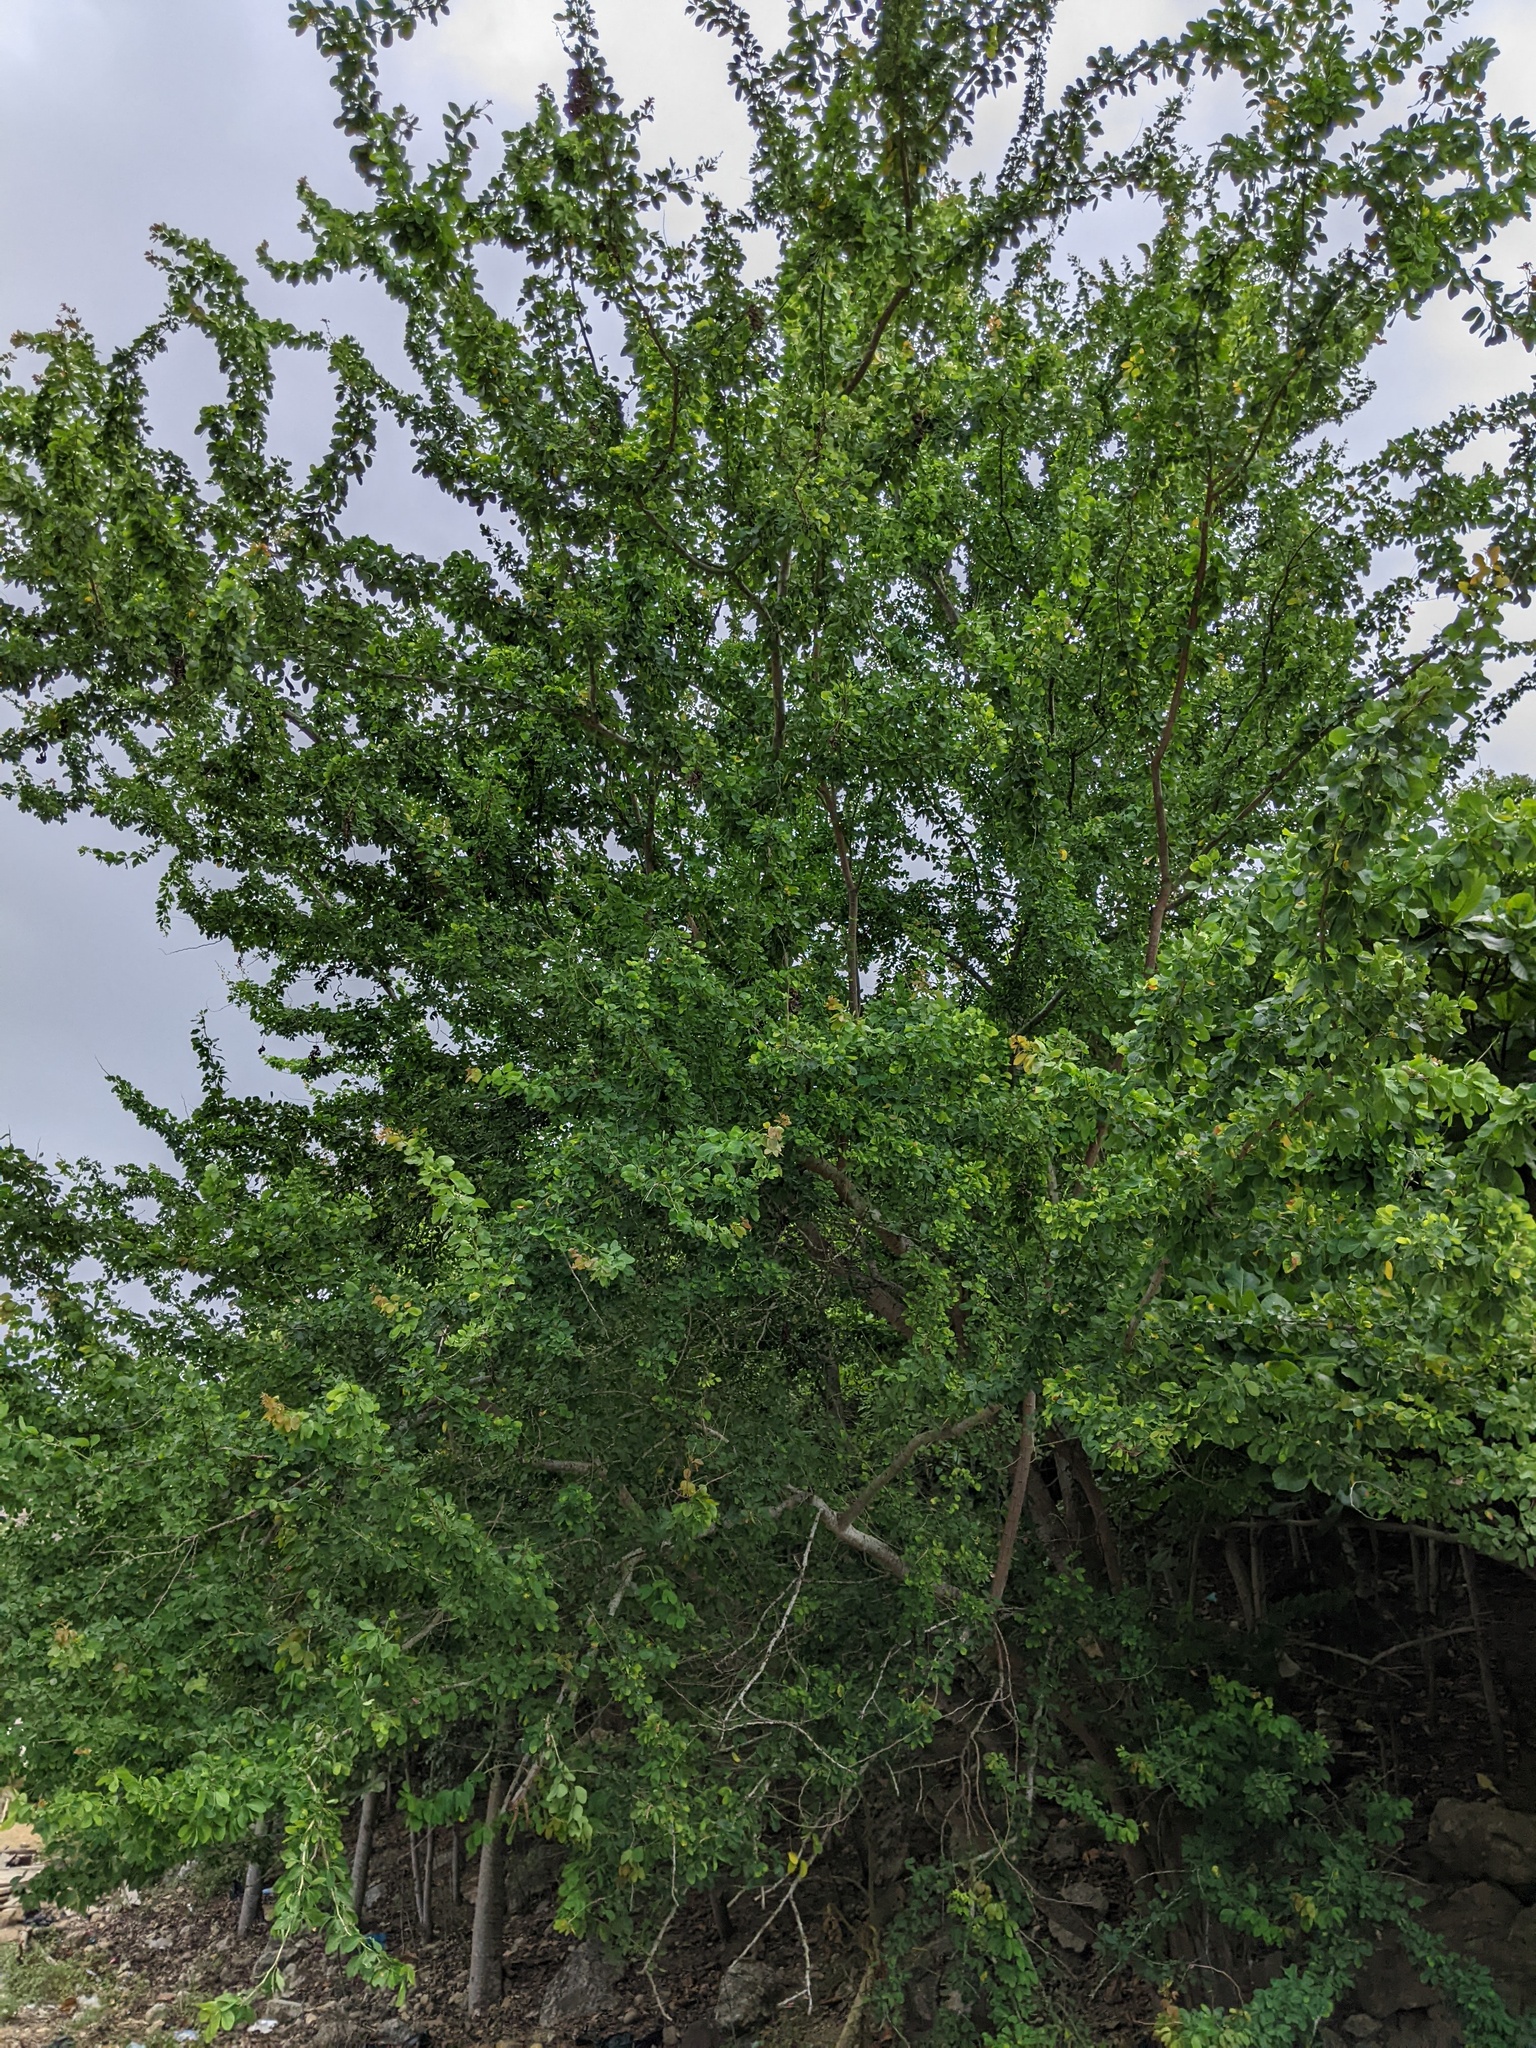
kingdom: Plantae
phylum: Tracheophyta
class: Magnoliopsida
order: Fabales
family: Fabaceae
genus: Pithecellobium
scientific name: Pithecellobium dulce
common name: Monkeypod
